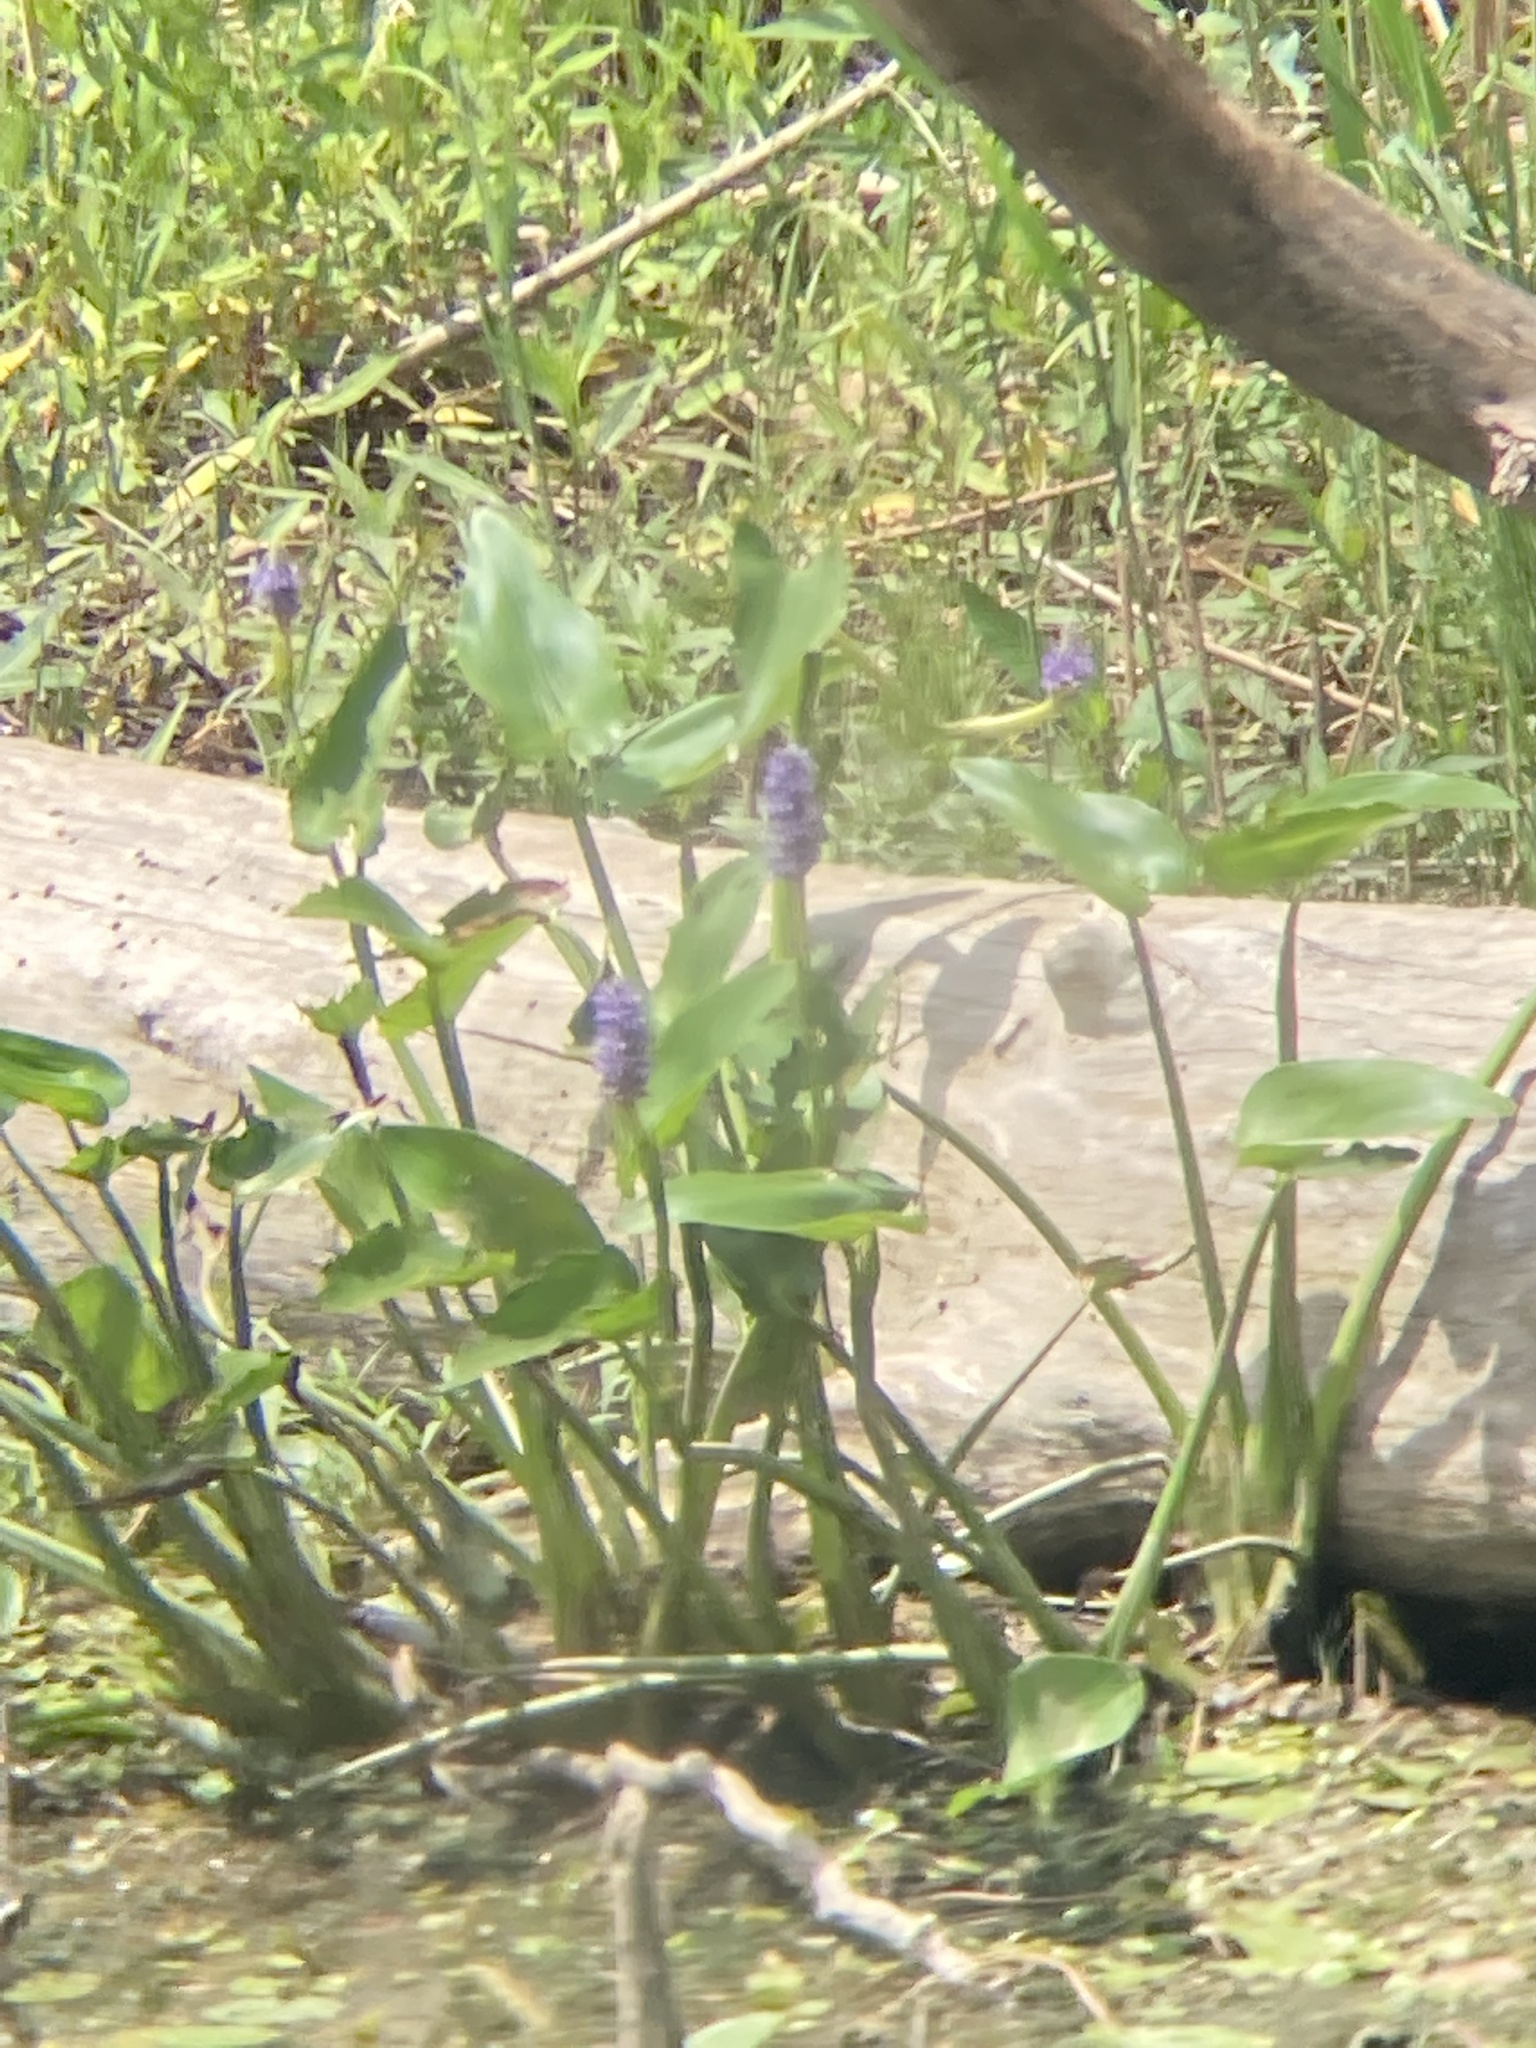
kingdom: Plantae
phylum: Tracheophyta
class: Liliopsida
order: Commelinales
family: Pontederiaceae
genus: Pontederia
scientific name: Pontederia cordata
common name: Pickerelweed
